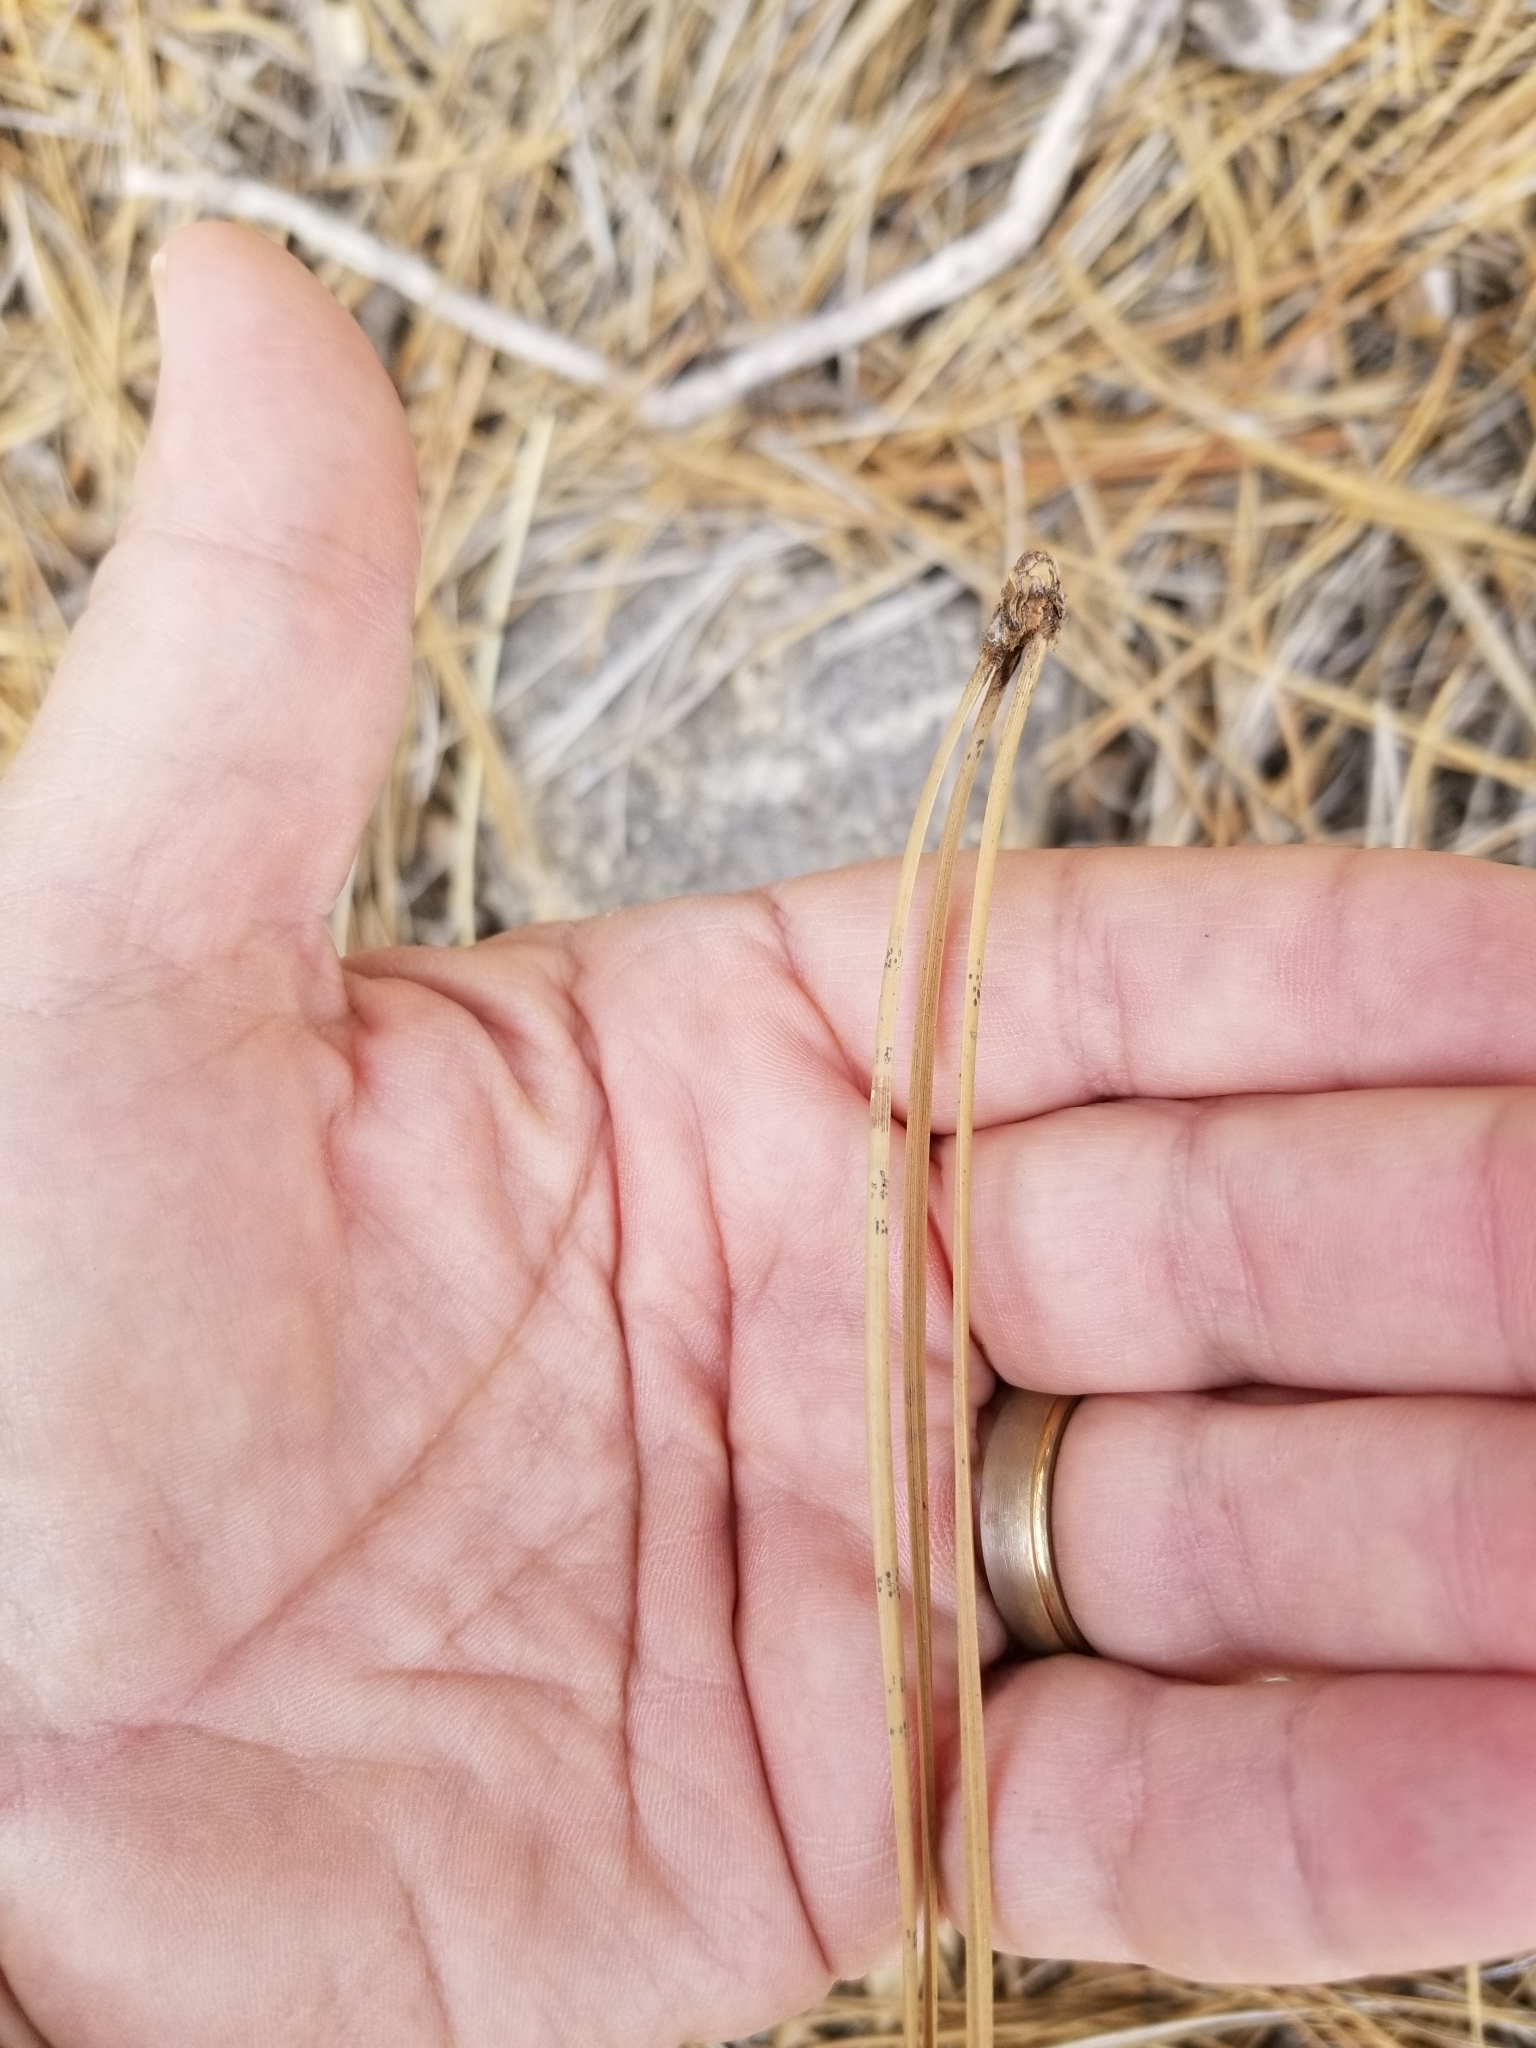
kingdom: Plantae
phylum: Tracheophyta
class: Pinopsida
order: Pinales
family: Pinaceae
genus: Pinus
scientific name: Pinus jeffreyi
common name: Jeffrey pine
